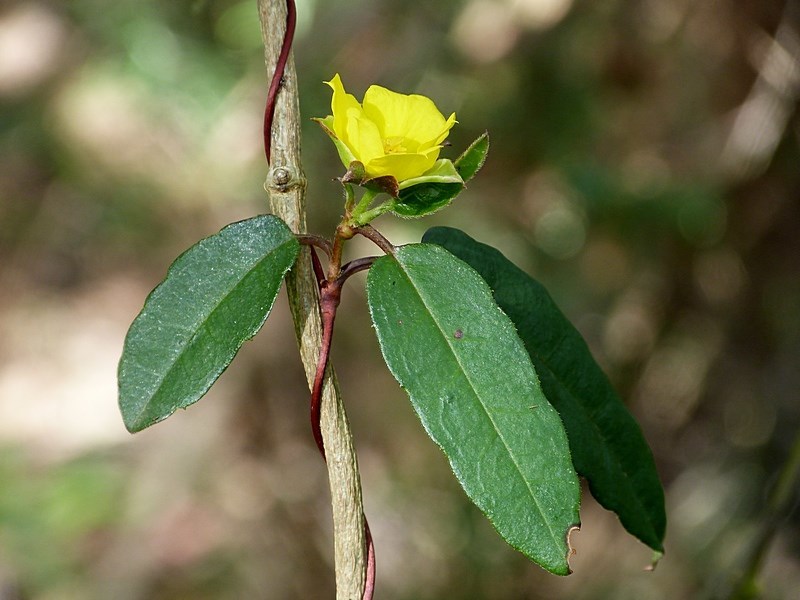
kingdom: Plantae
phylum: Tracheophyta
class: Magnoliopsida
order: Dilleniales
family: Dilleniaceae
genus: Hibbertia
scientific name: Hibbertia dentata
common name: Trailing guinea-flower
